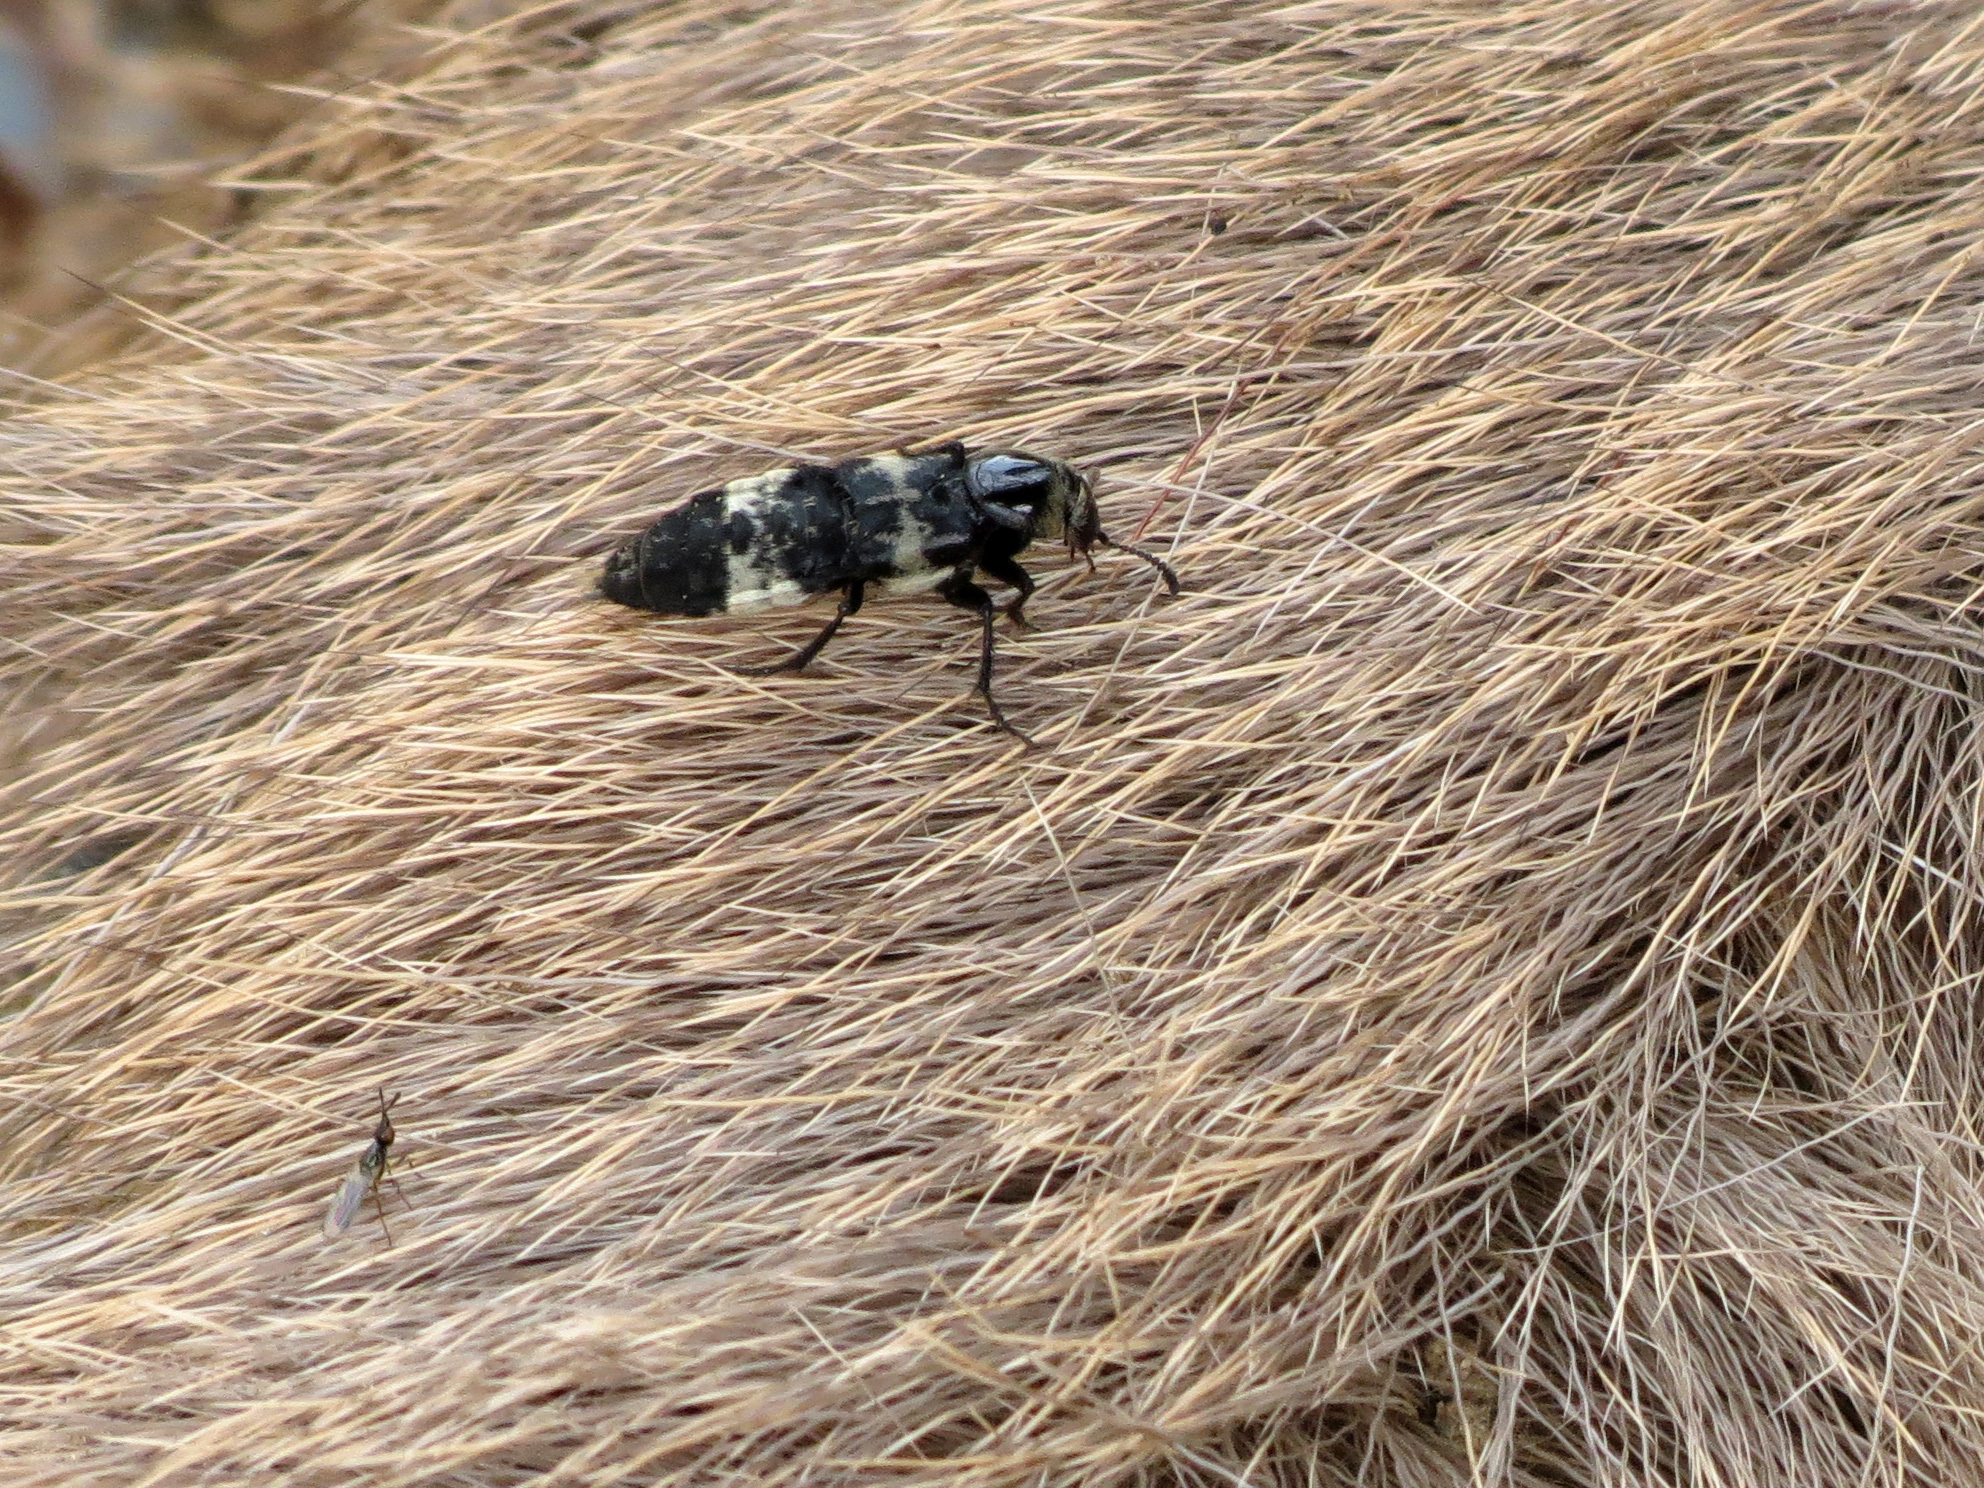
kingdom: Animalia
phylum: Arthropoda
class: Insecta
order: Coleoptera
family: Staphylinidae
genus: Creophilus
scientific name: Creophilus maxillosus
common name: Hairy rove beetle
